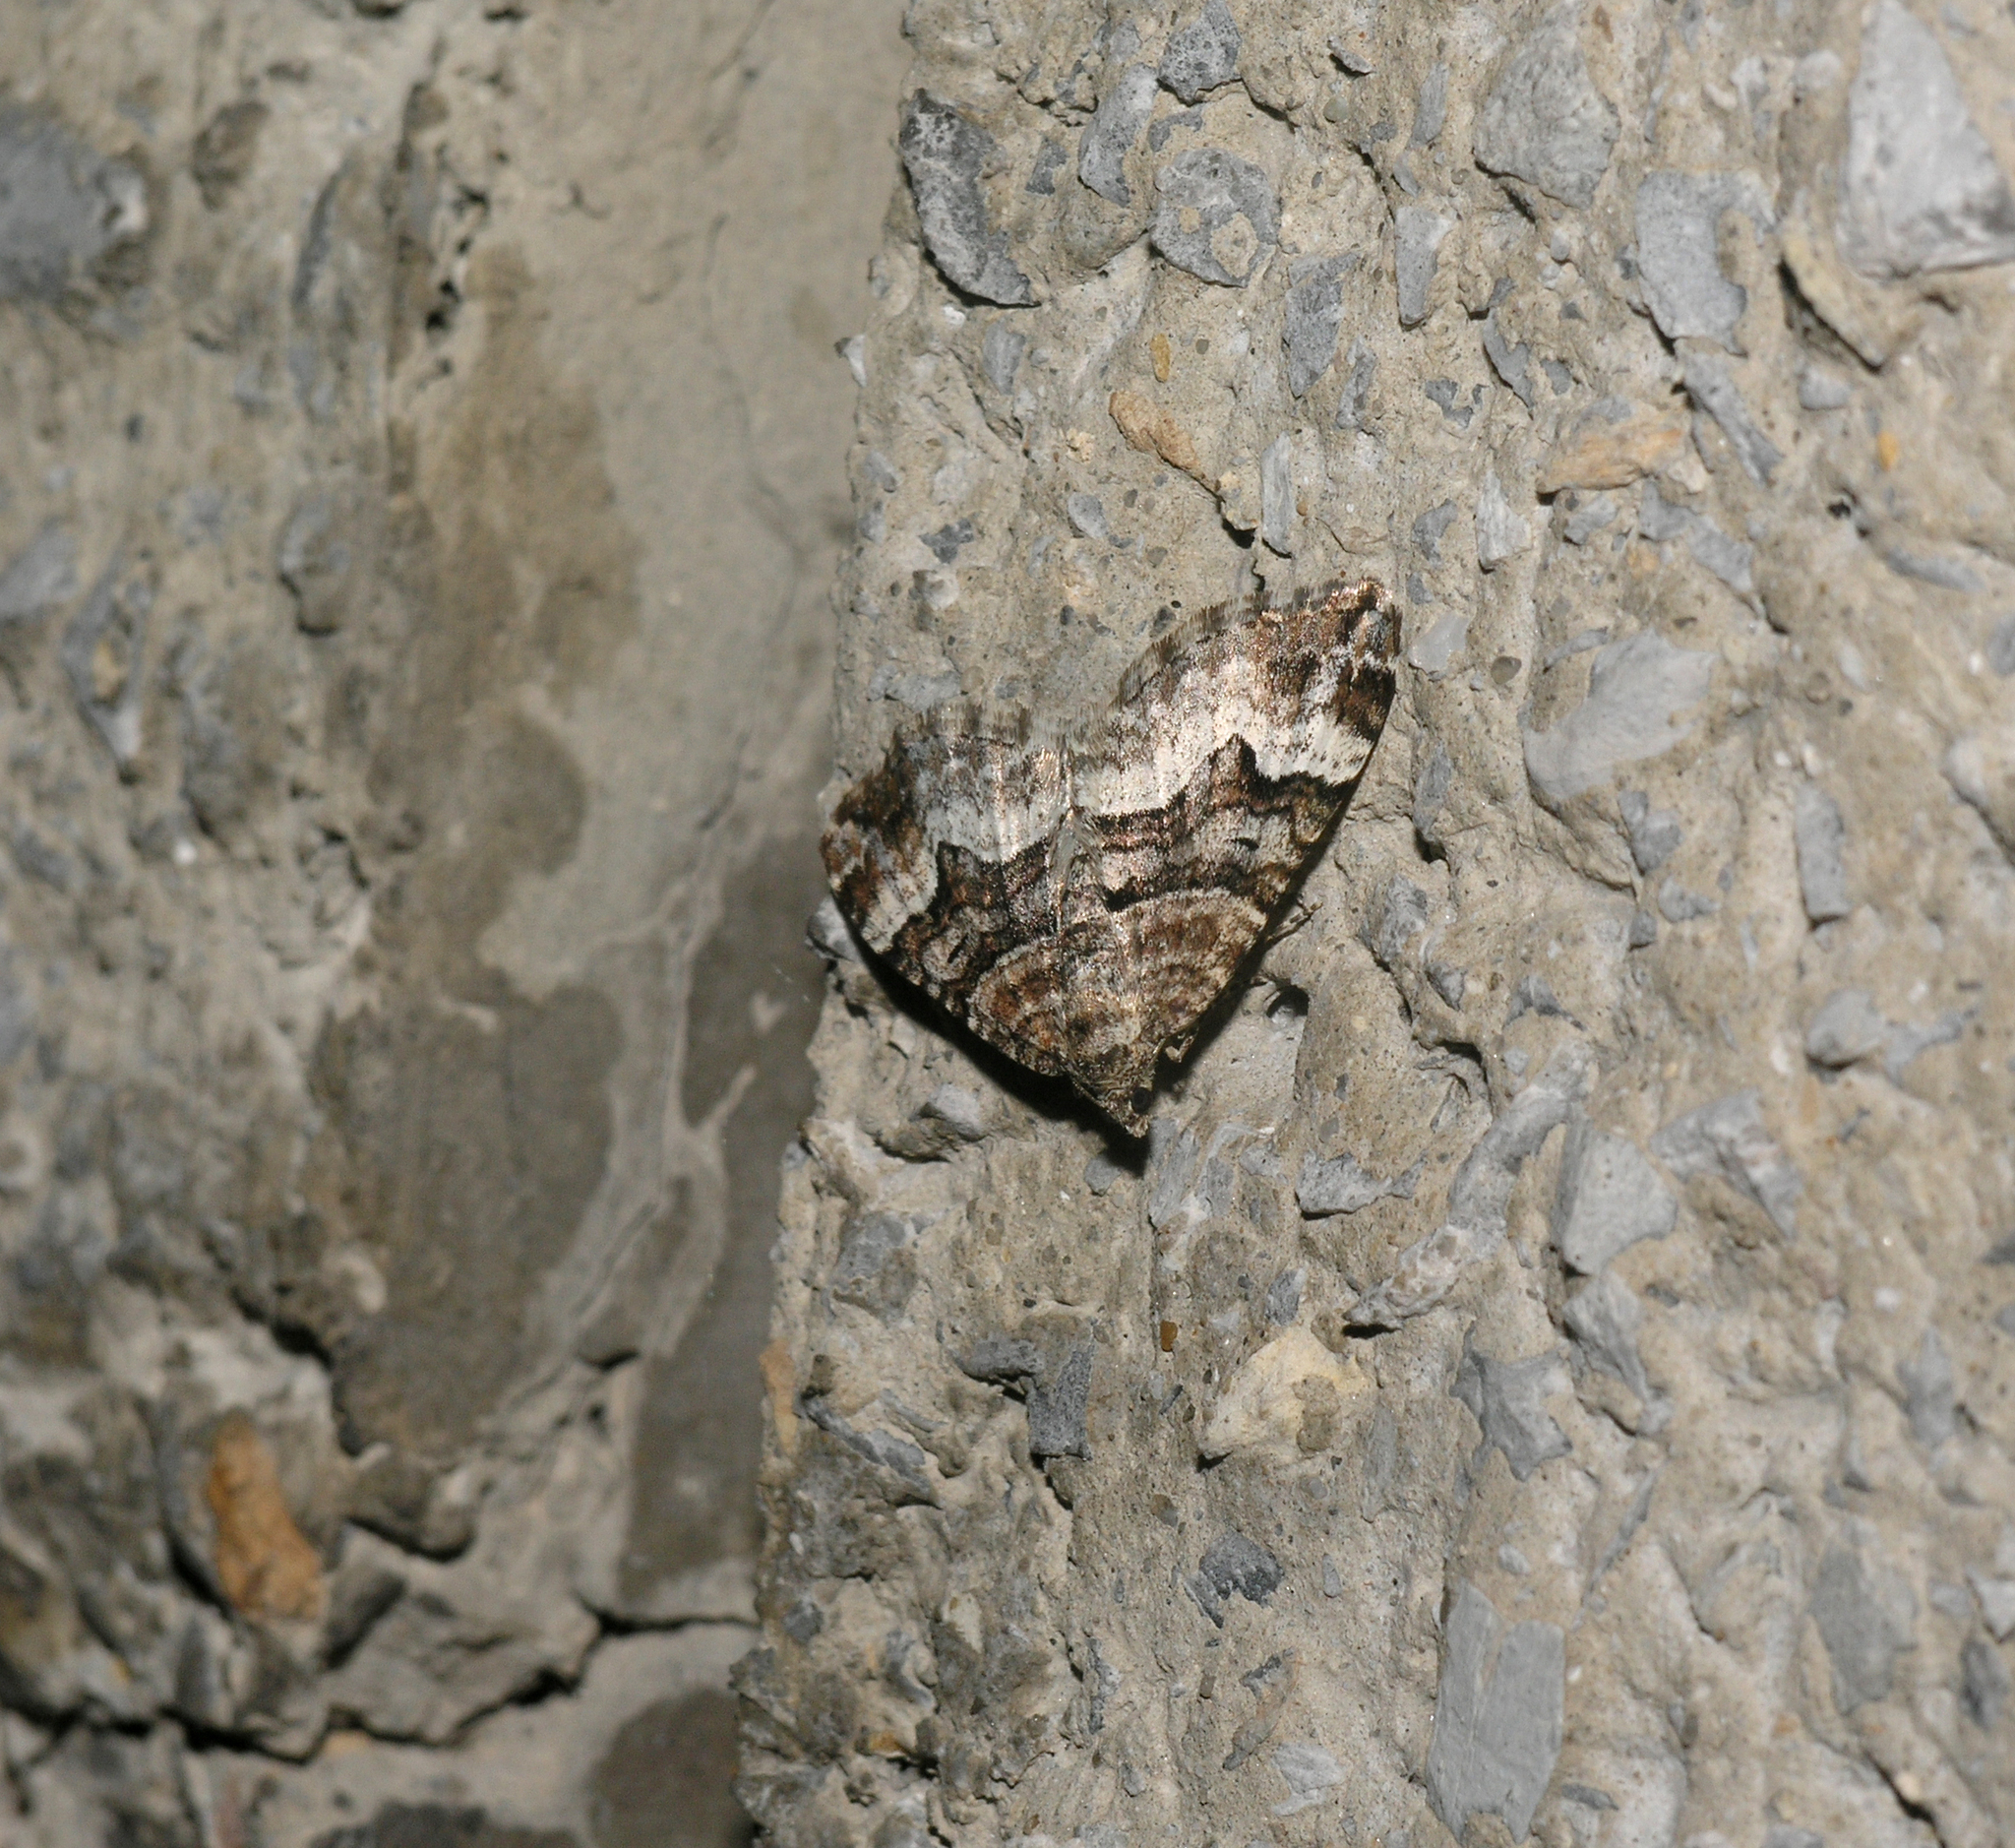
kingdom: Animalia
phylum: Arthropoda
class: Insecta
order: Lepidoptera
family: Geometridae
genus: Xanthorhoe
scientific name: Xanthorhoe biriviata
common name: Balsam carpet
